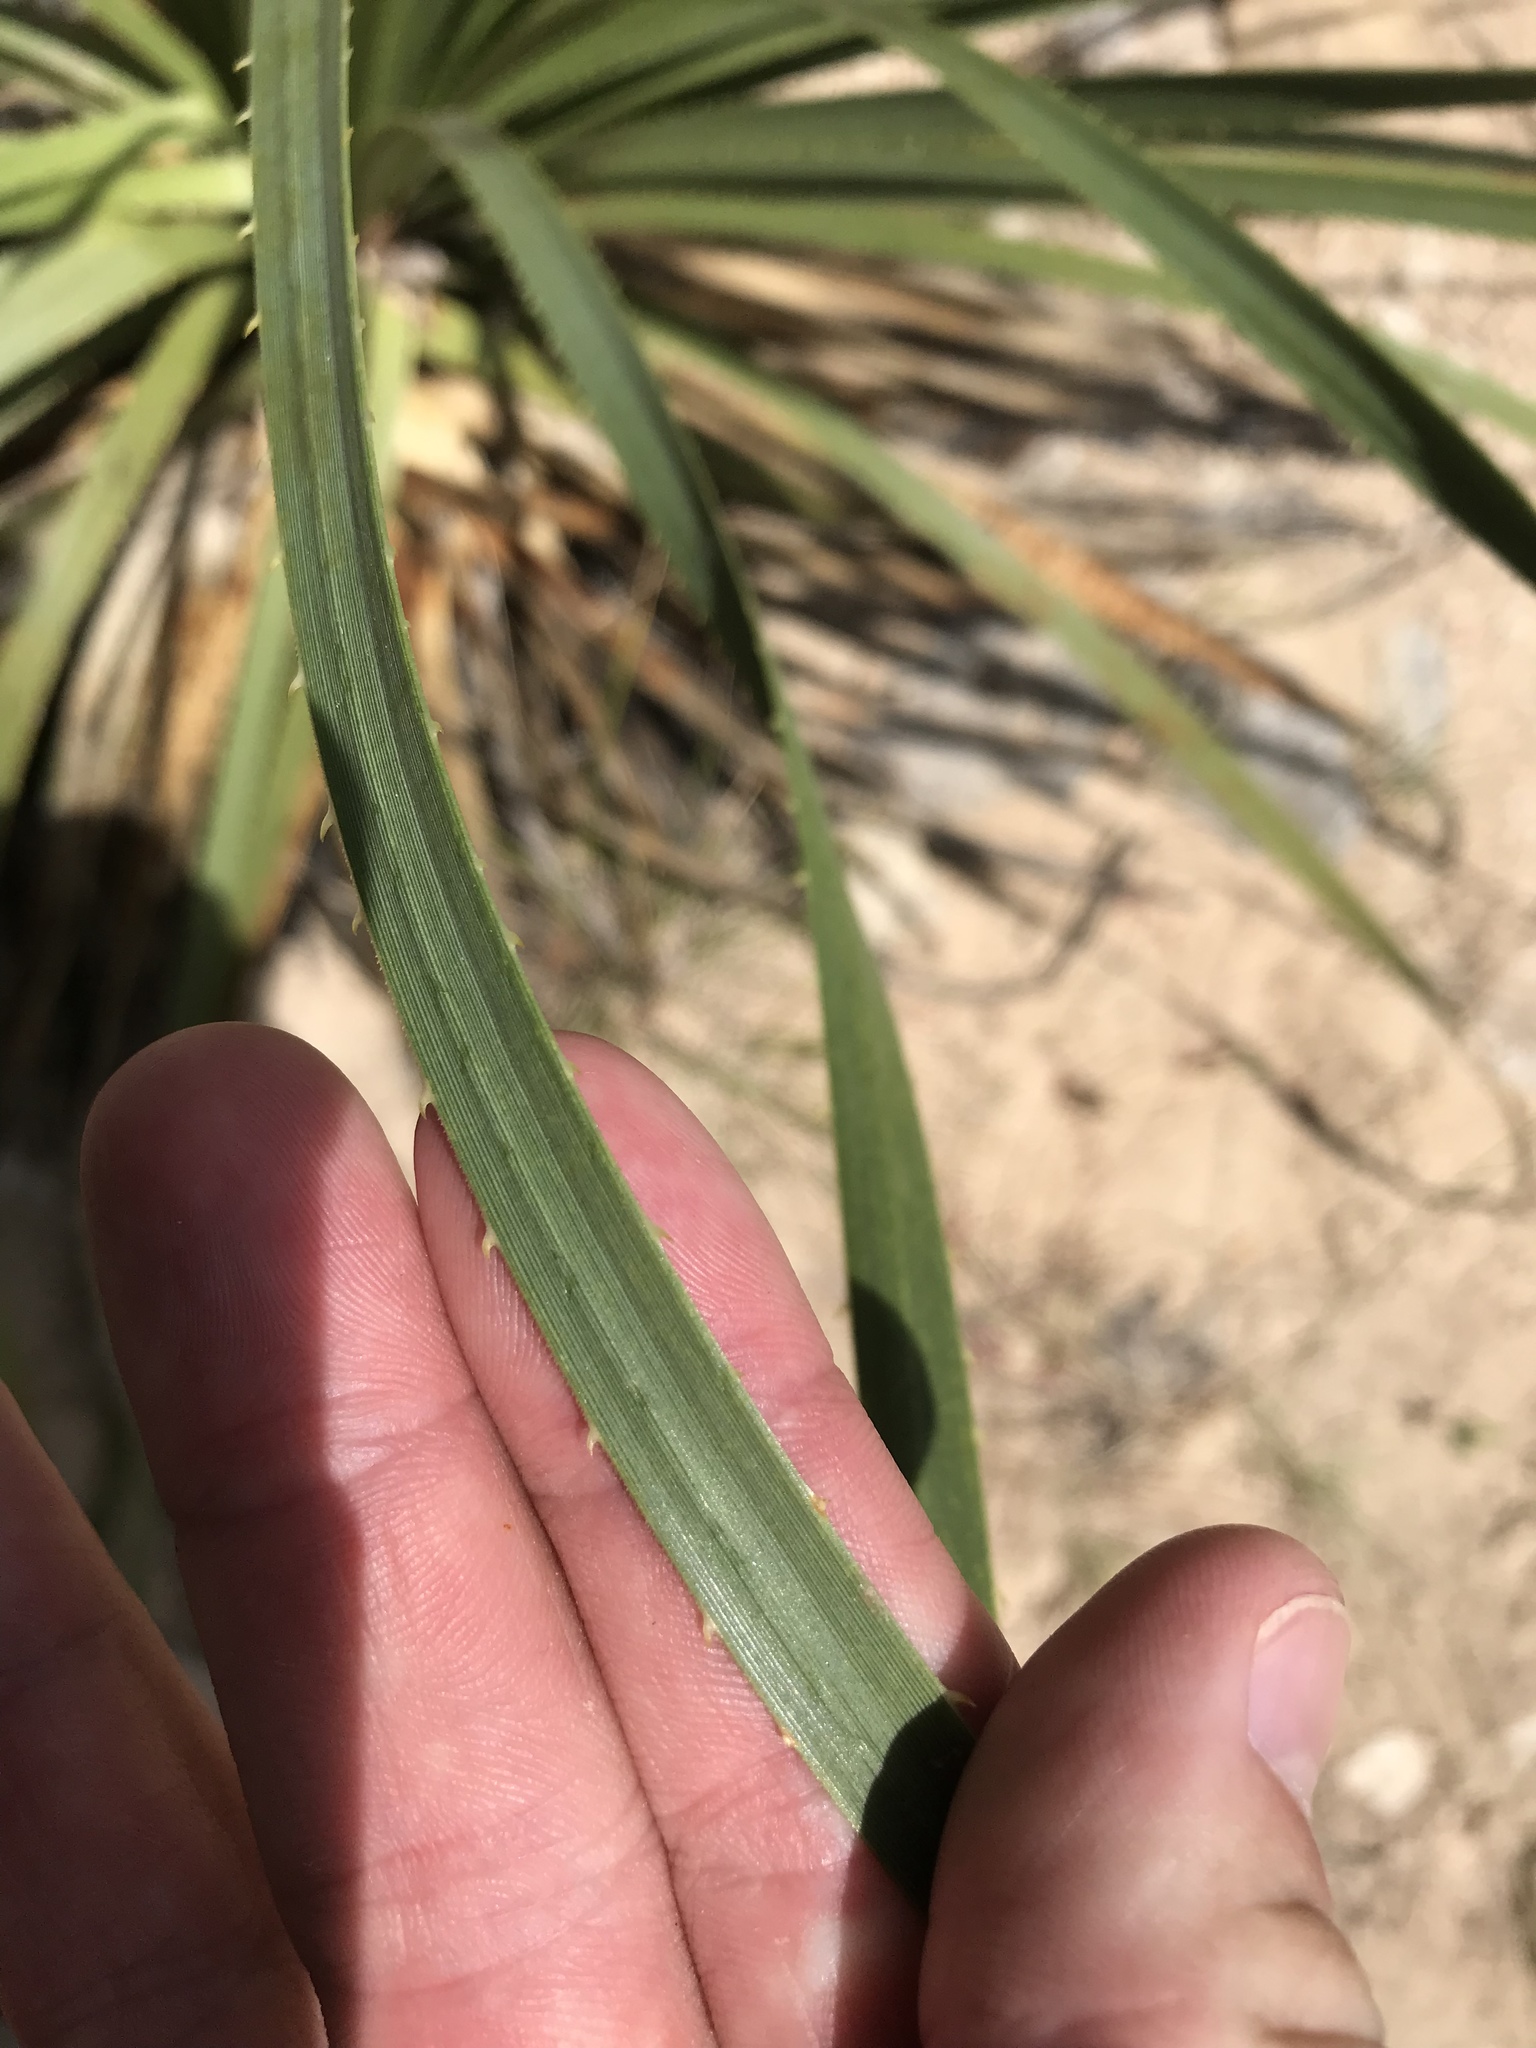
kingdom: Plantae
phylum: Tracheophyta
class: Liliopsida
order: Asparagales
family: Asparagaceae
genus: Dasylirion
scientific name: Dasylirion texanum
